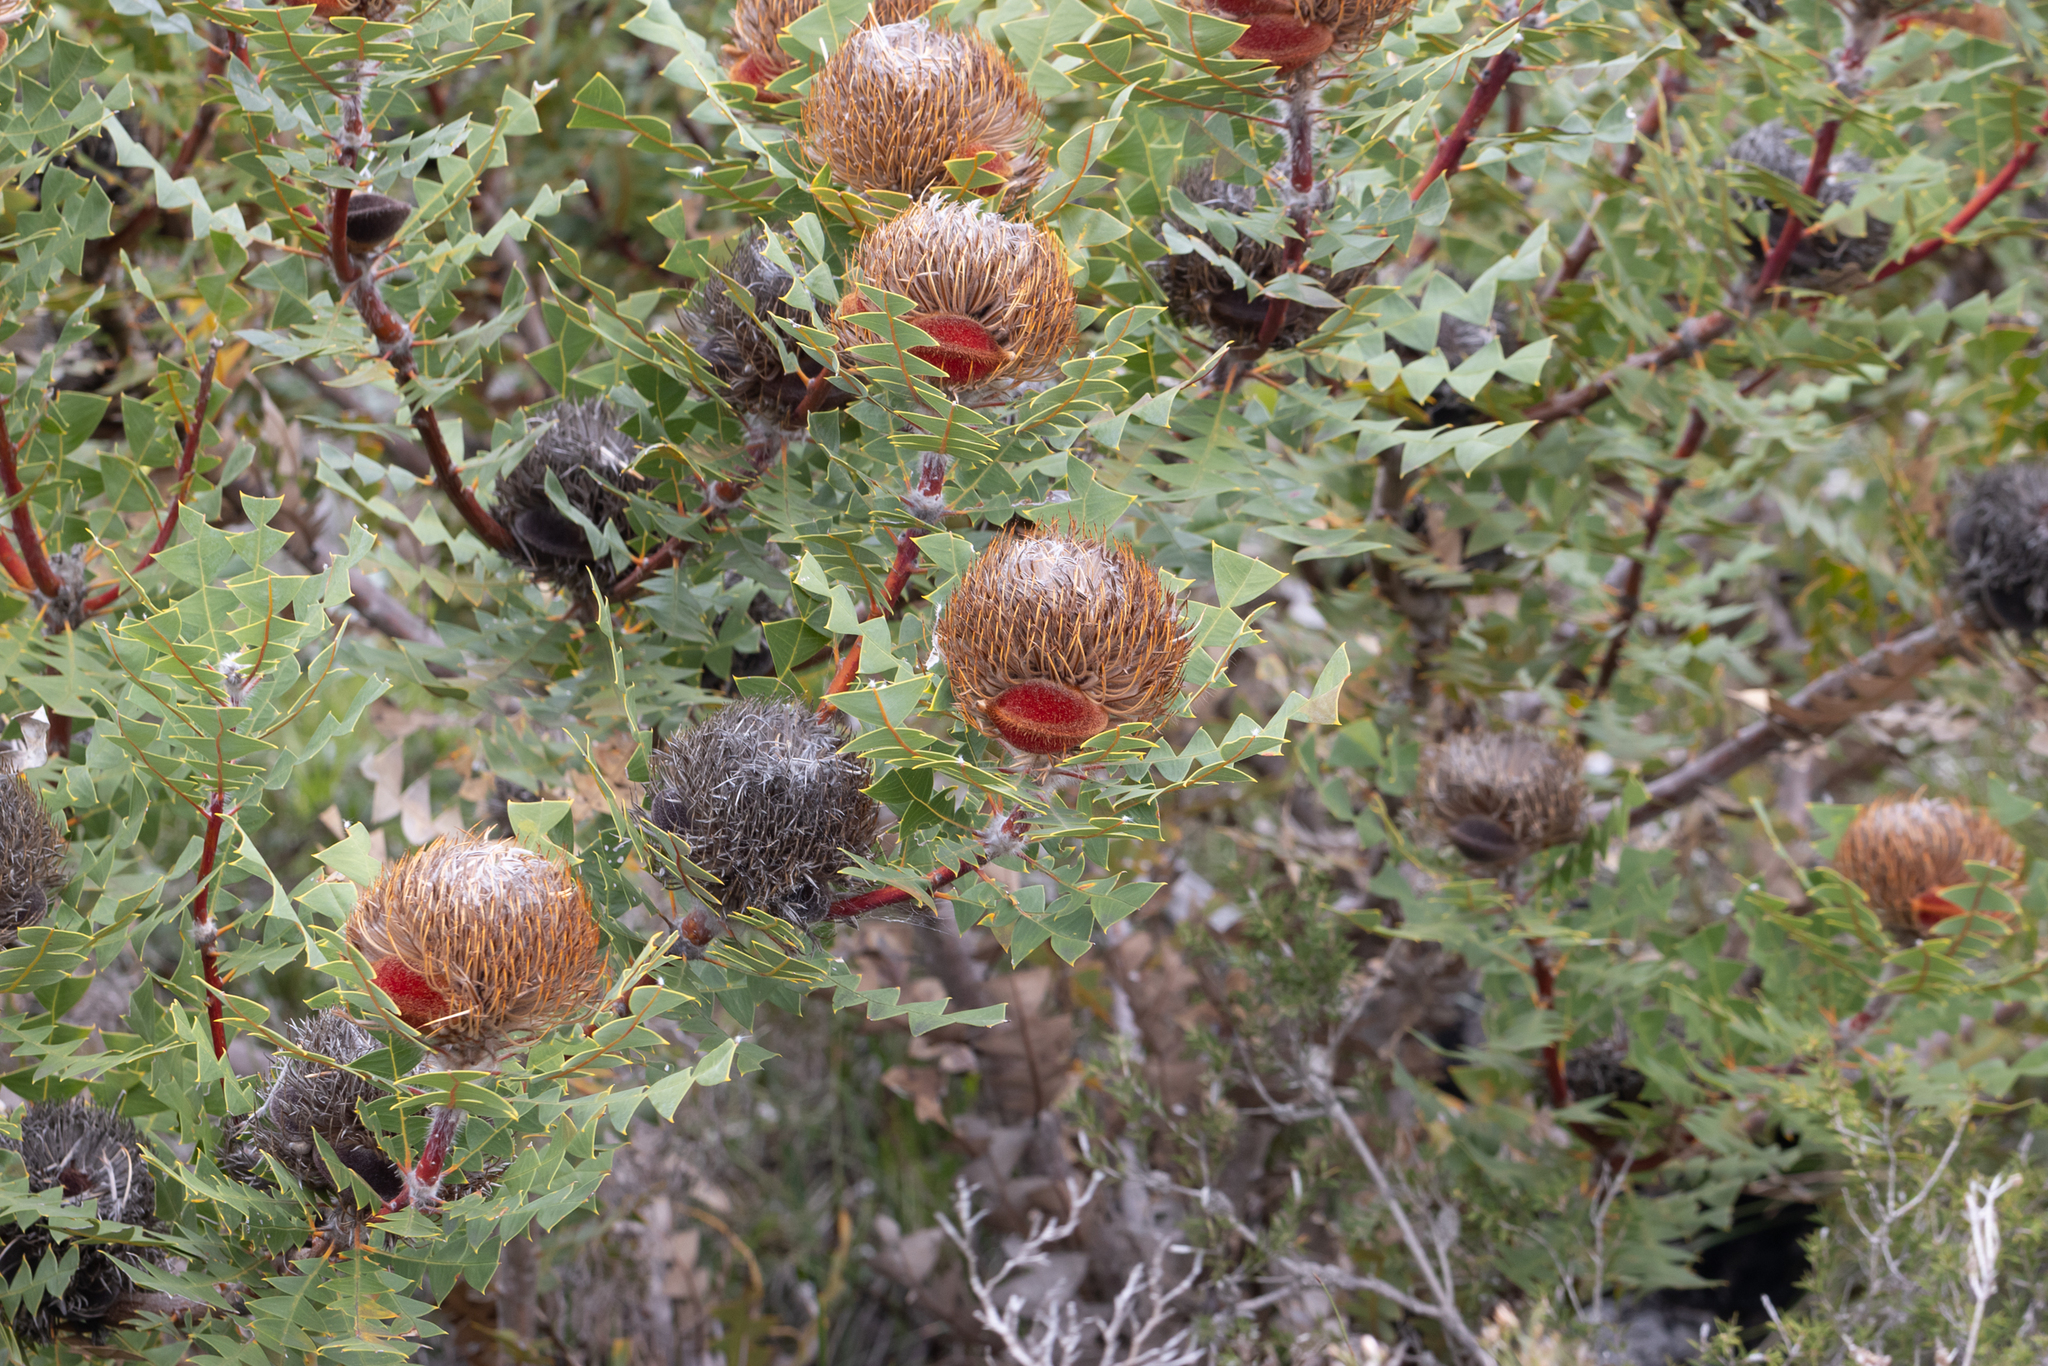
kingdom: Plantae
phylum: Tracheophyta
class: Magnoliopsida
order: Proteales
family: Proteaceae
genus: Banksia
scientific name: Banksia baxteri
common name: Bird's-nest banksia
